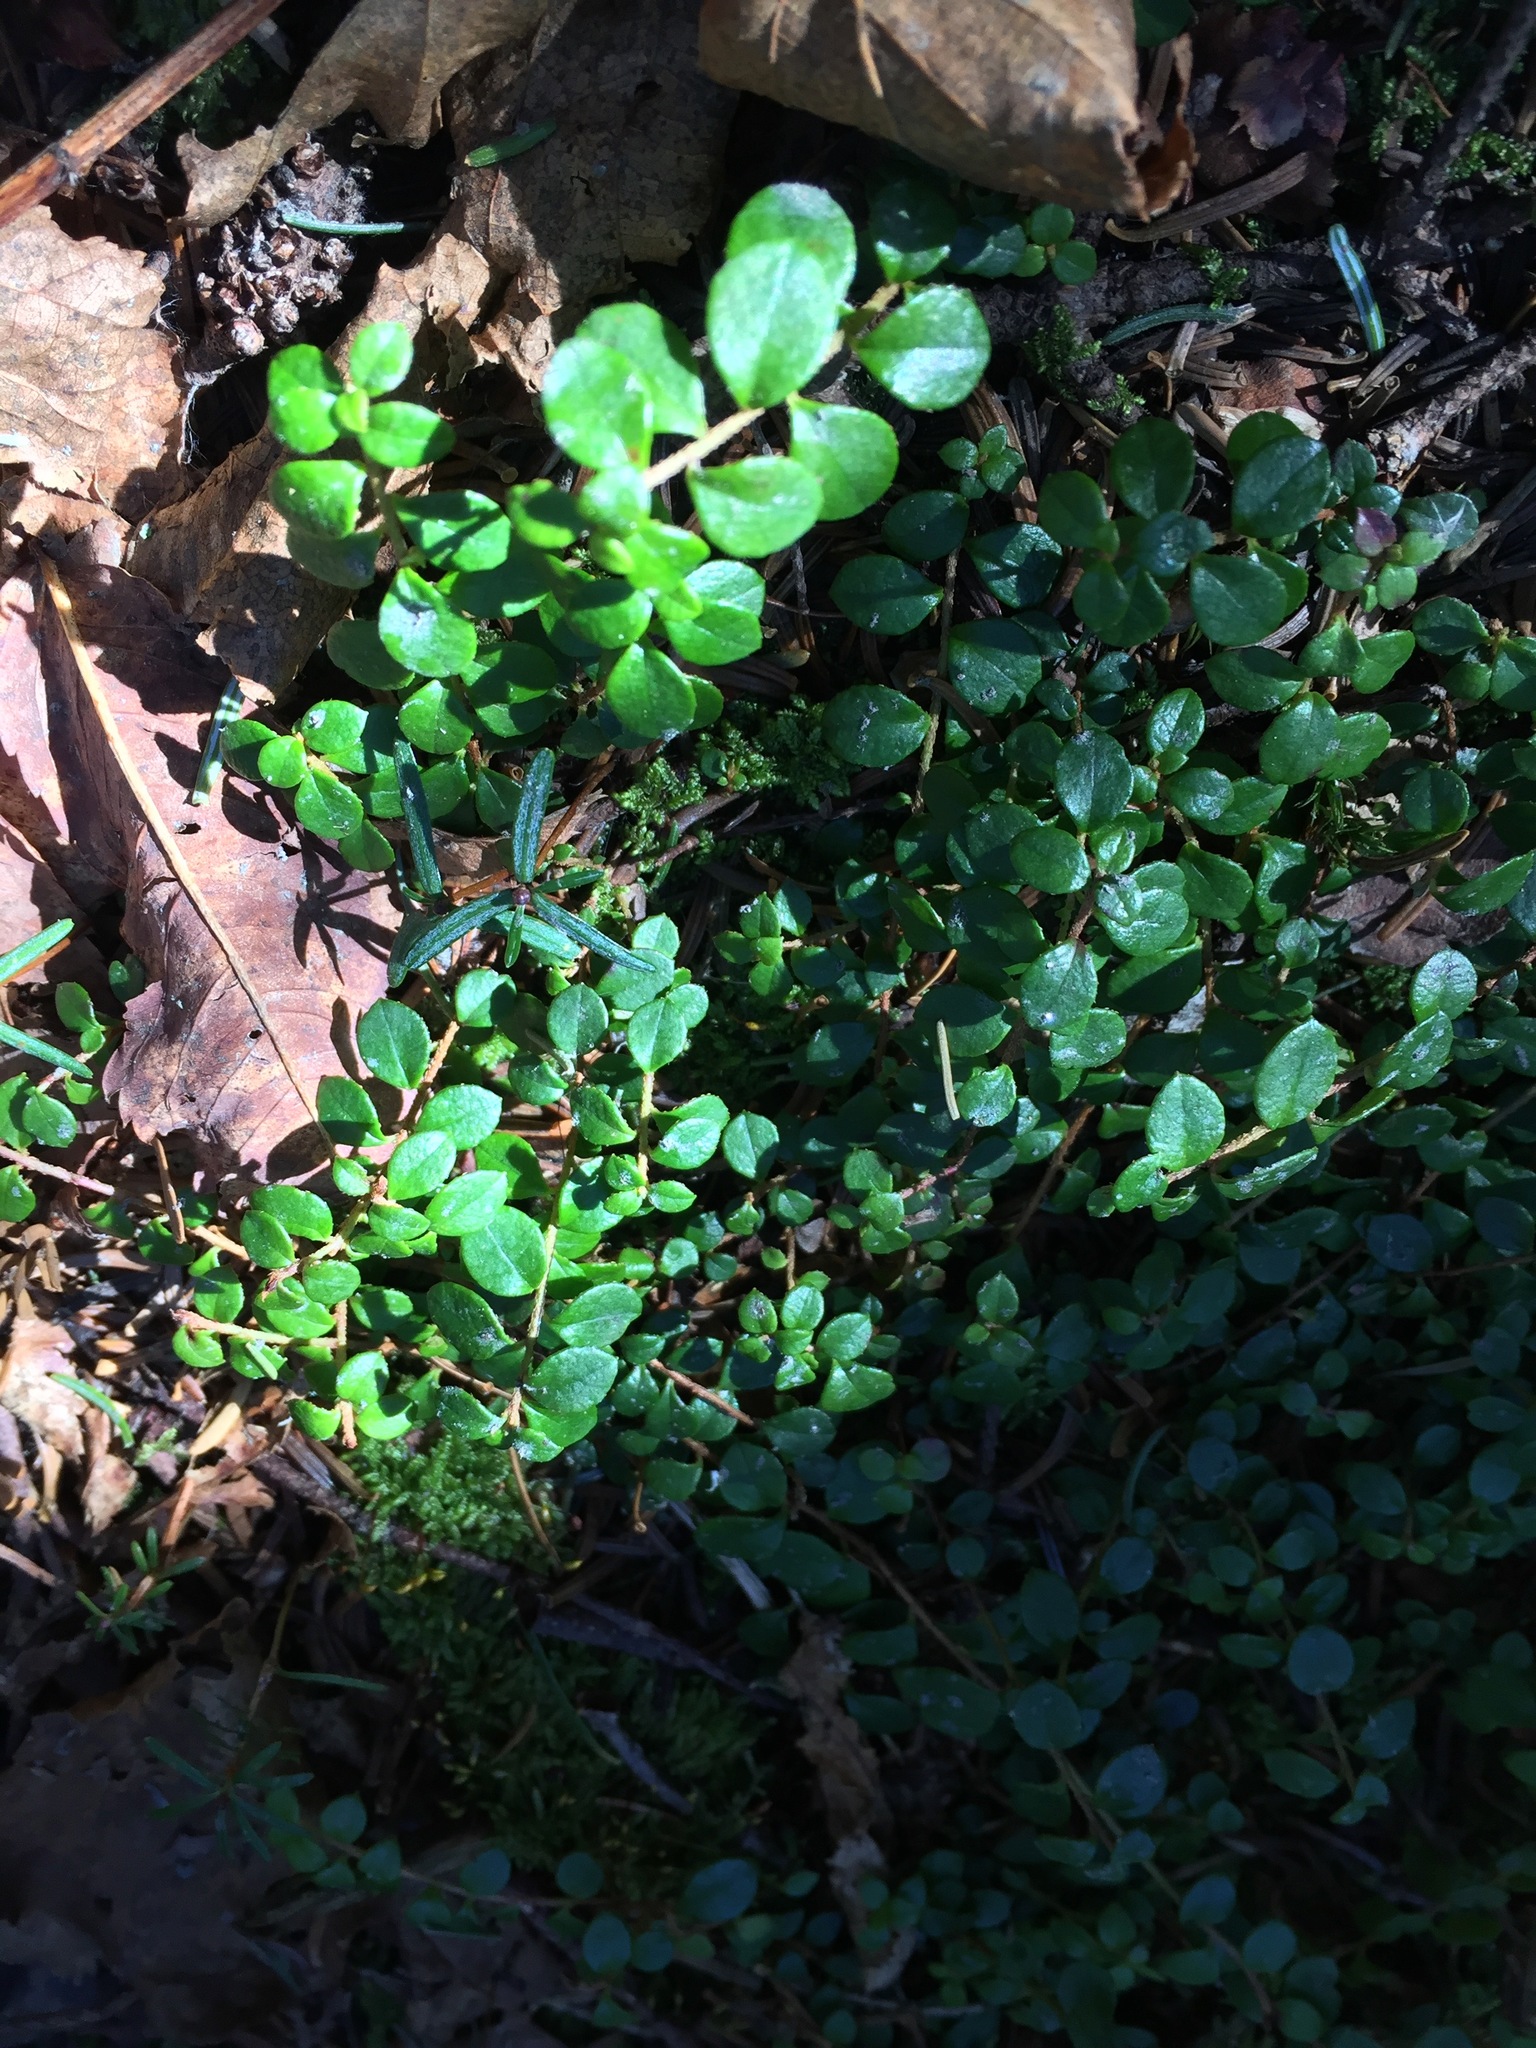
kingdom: Plantae
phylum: Tracheophyta
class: Magnoliopsida
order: Ericales
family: Ericaceae
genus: Gaultheria
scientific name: Gaultheria hispidula
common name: Cancer wintergreen
